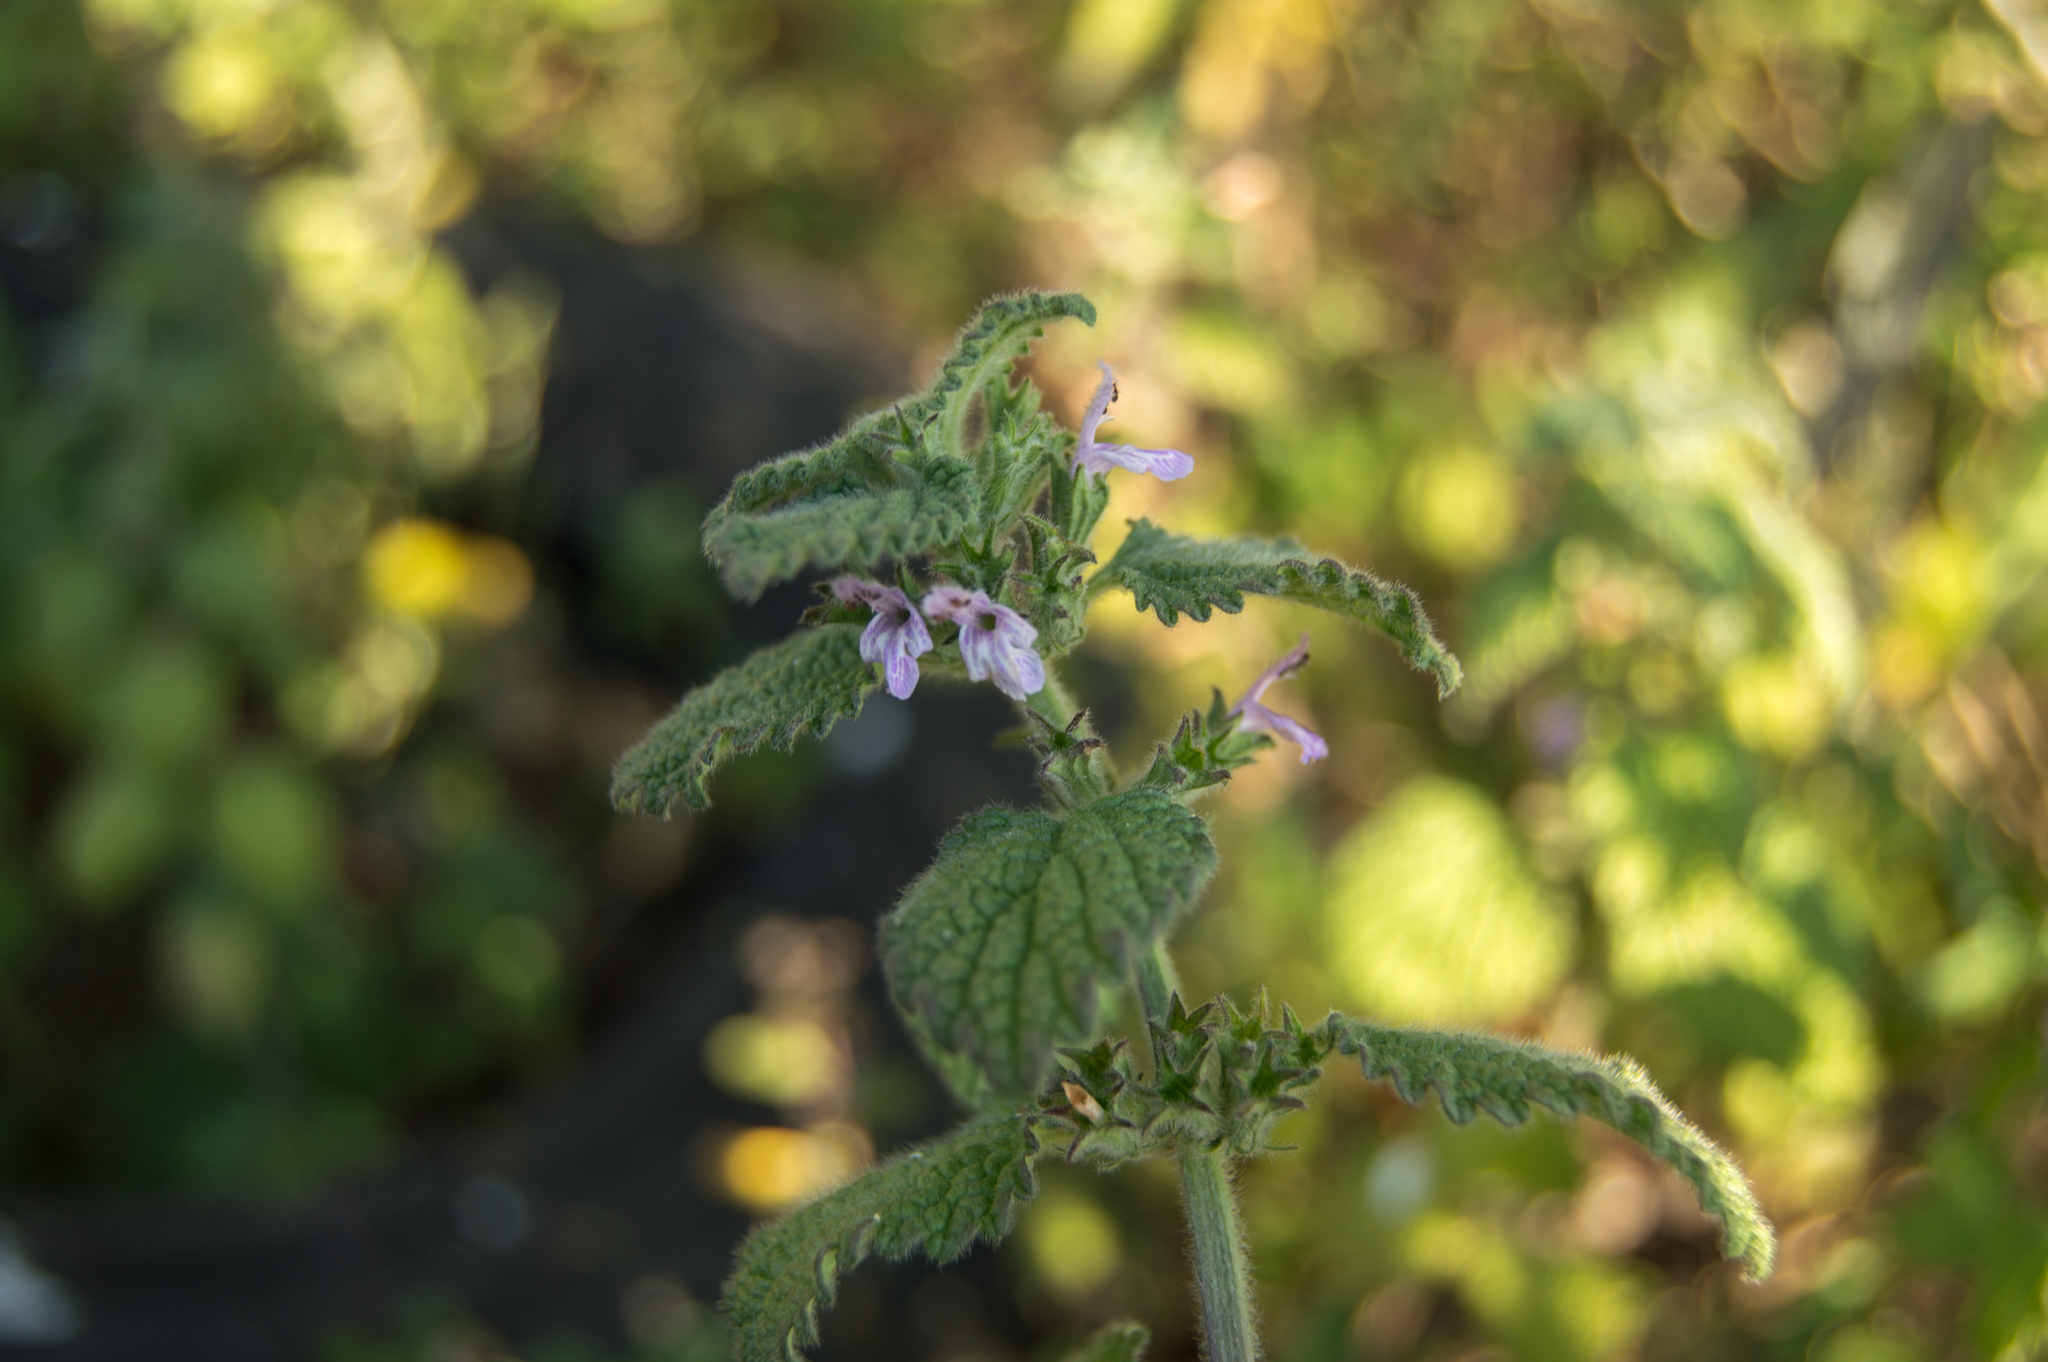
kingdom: Plantae
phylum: Tracheophyta
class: Magnoliopsida
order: Lamiales
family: Lamiaceae
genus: Ballota
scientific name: Ballota nigra
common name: Black horehound
